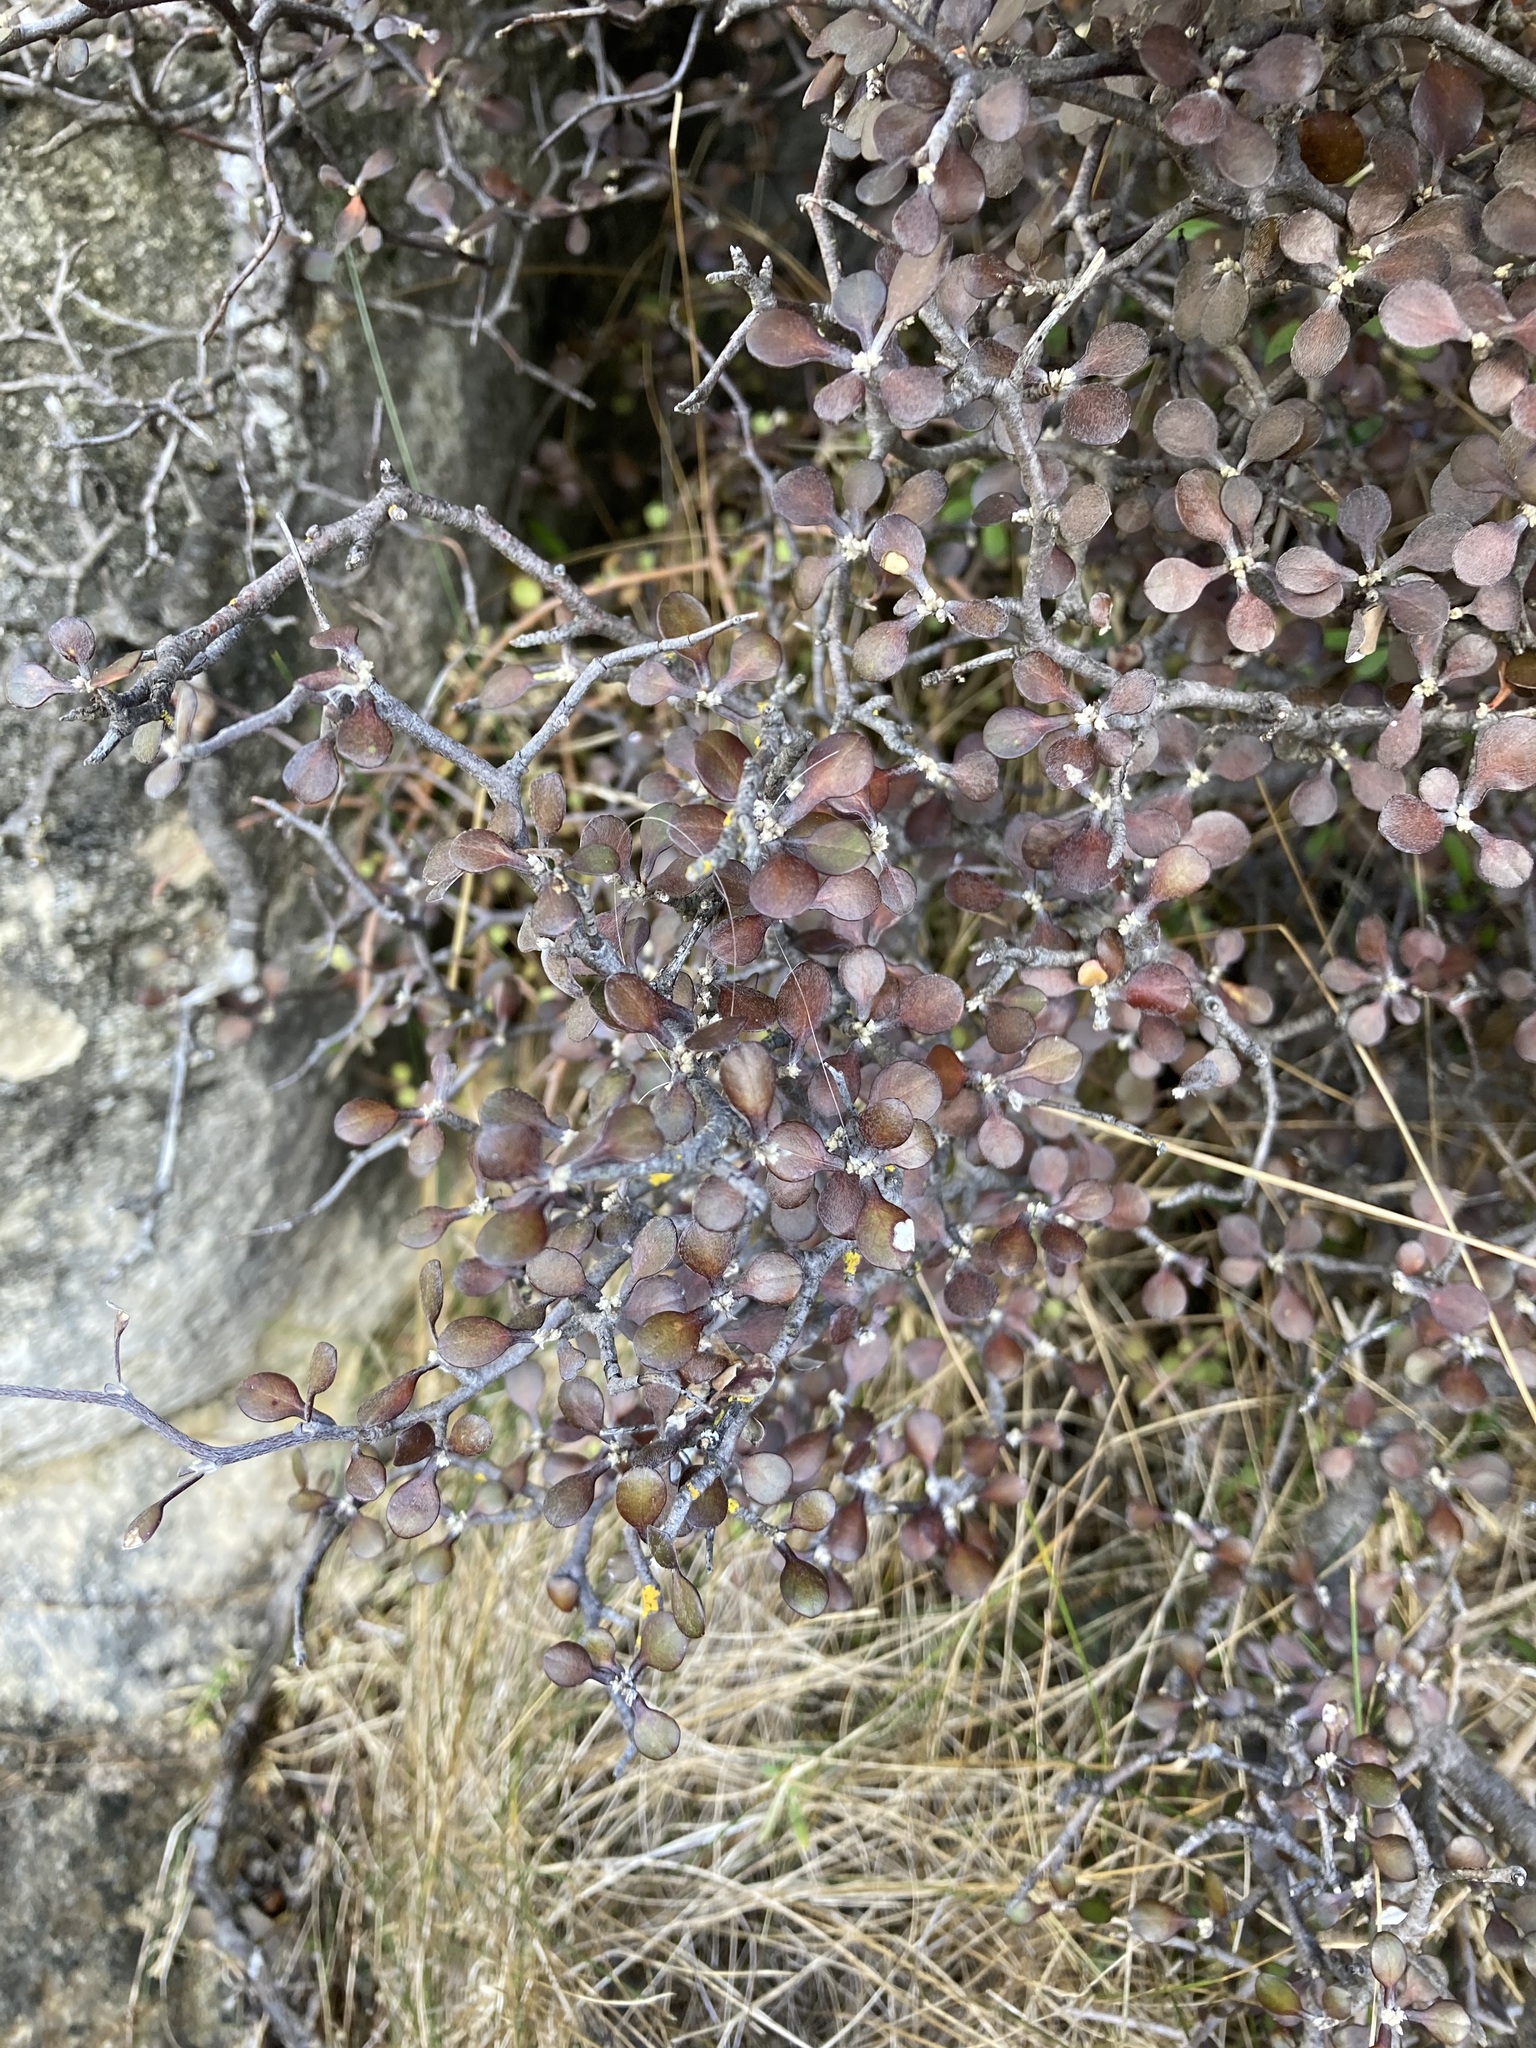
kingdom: Plantae
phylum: Tracheophyta
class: Magnoliopsida
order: Asterales
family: Argophyllaceae
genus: Corokia
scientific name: Corokia cotoneaster
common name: Wire nettingbush
